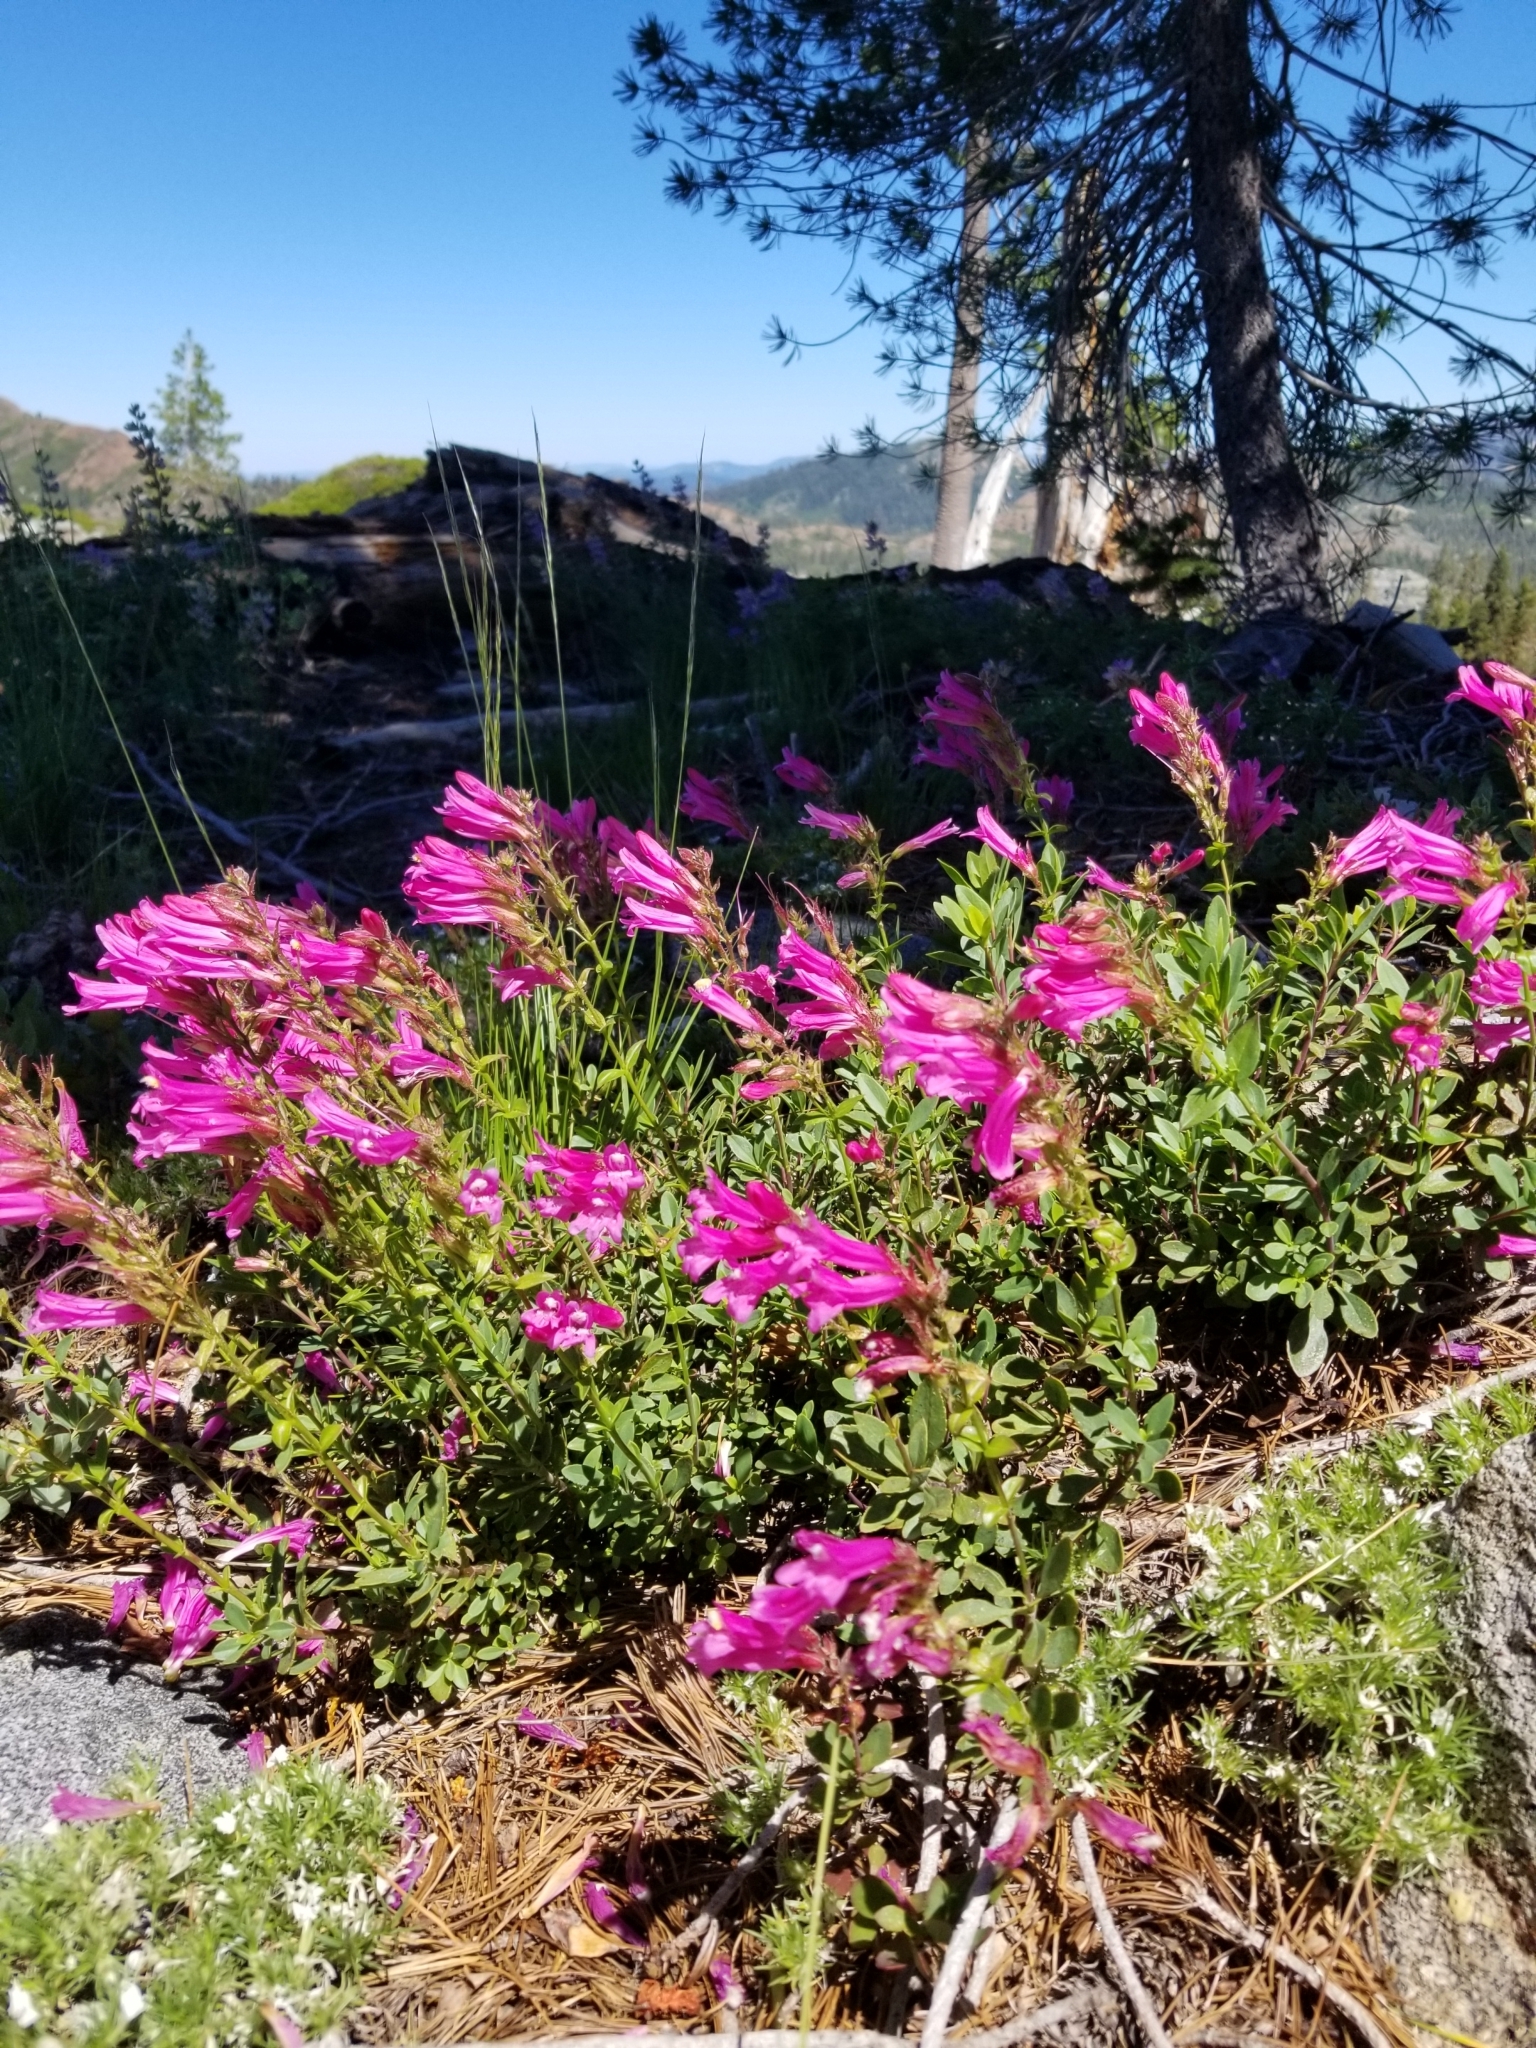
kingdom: Plantae
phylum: Tracheophyta
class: Magnoliopsida
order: Lamiales
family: Plantaginaceae
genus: Penstemon
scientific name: Penstemon newberryi
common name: Mountain-pride
